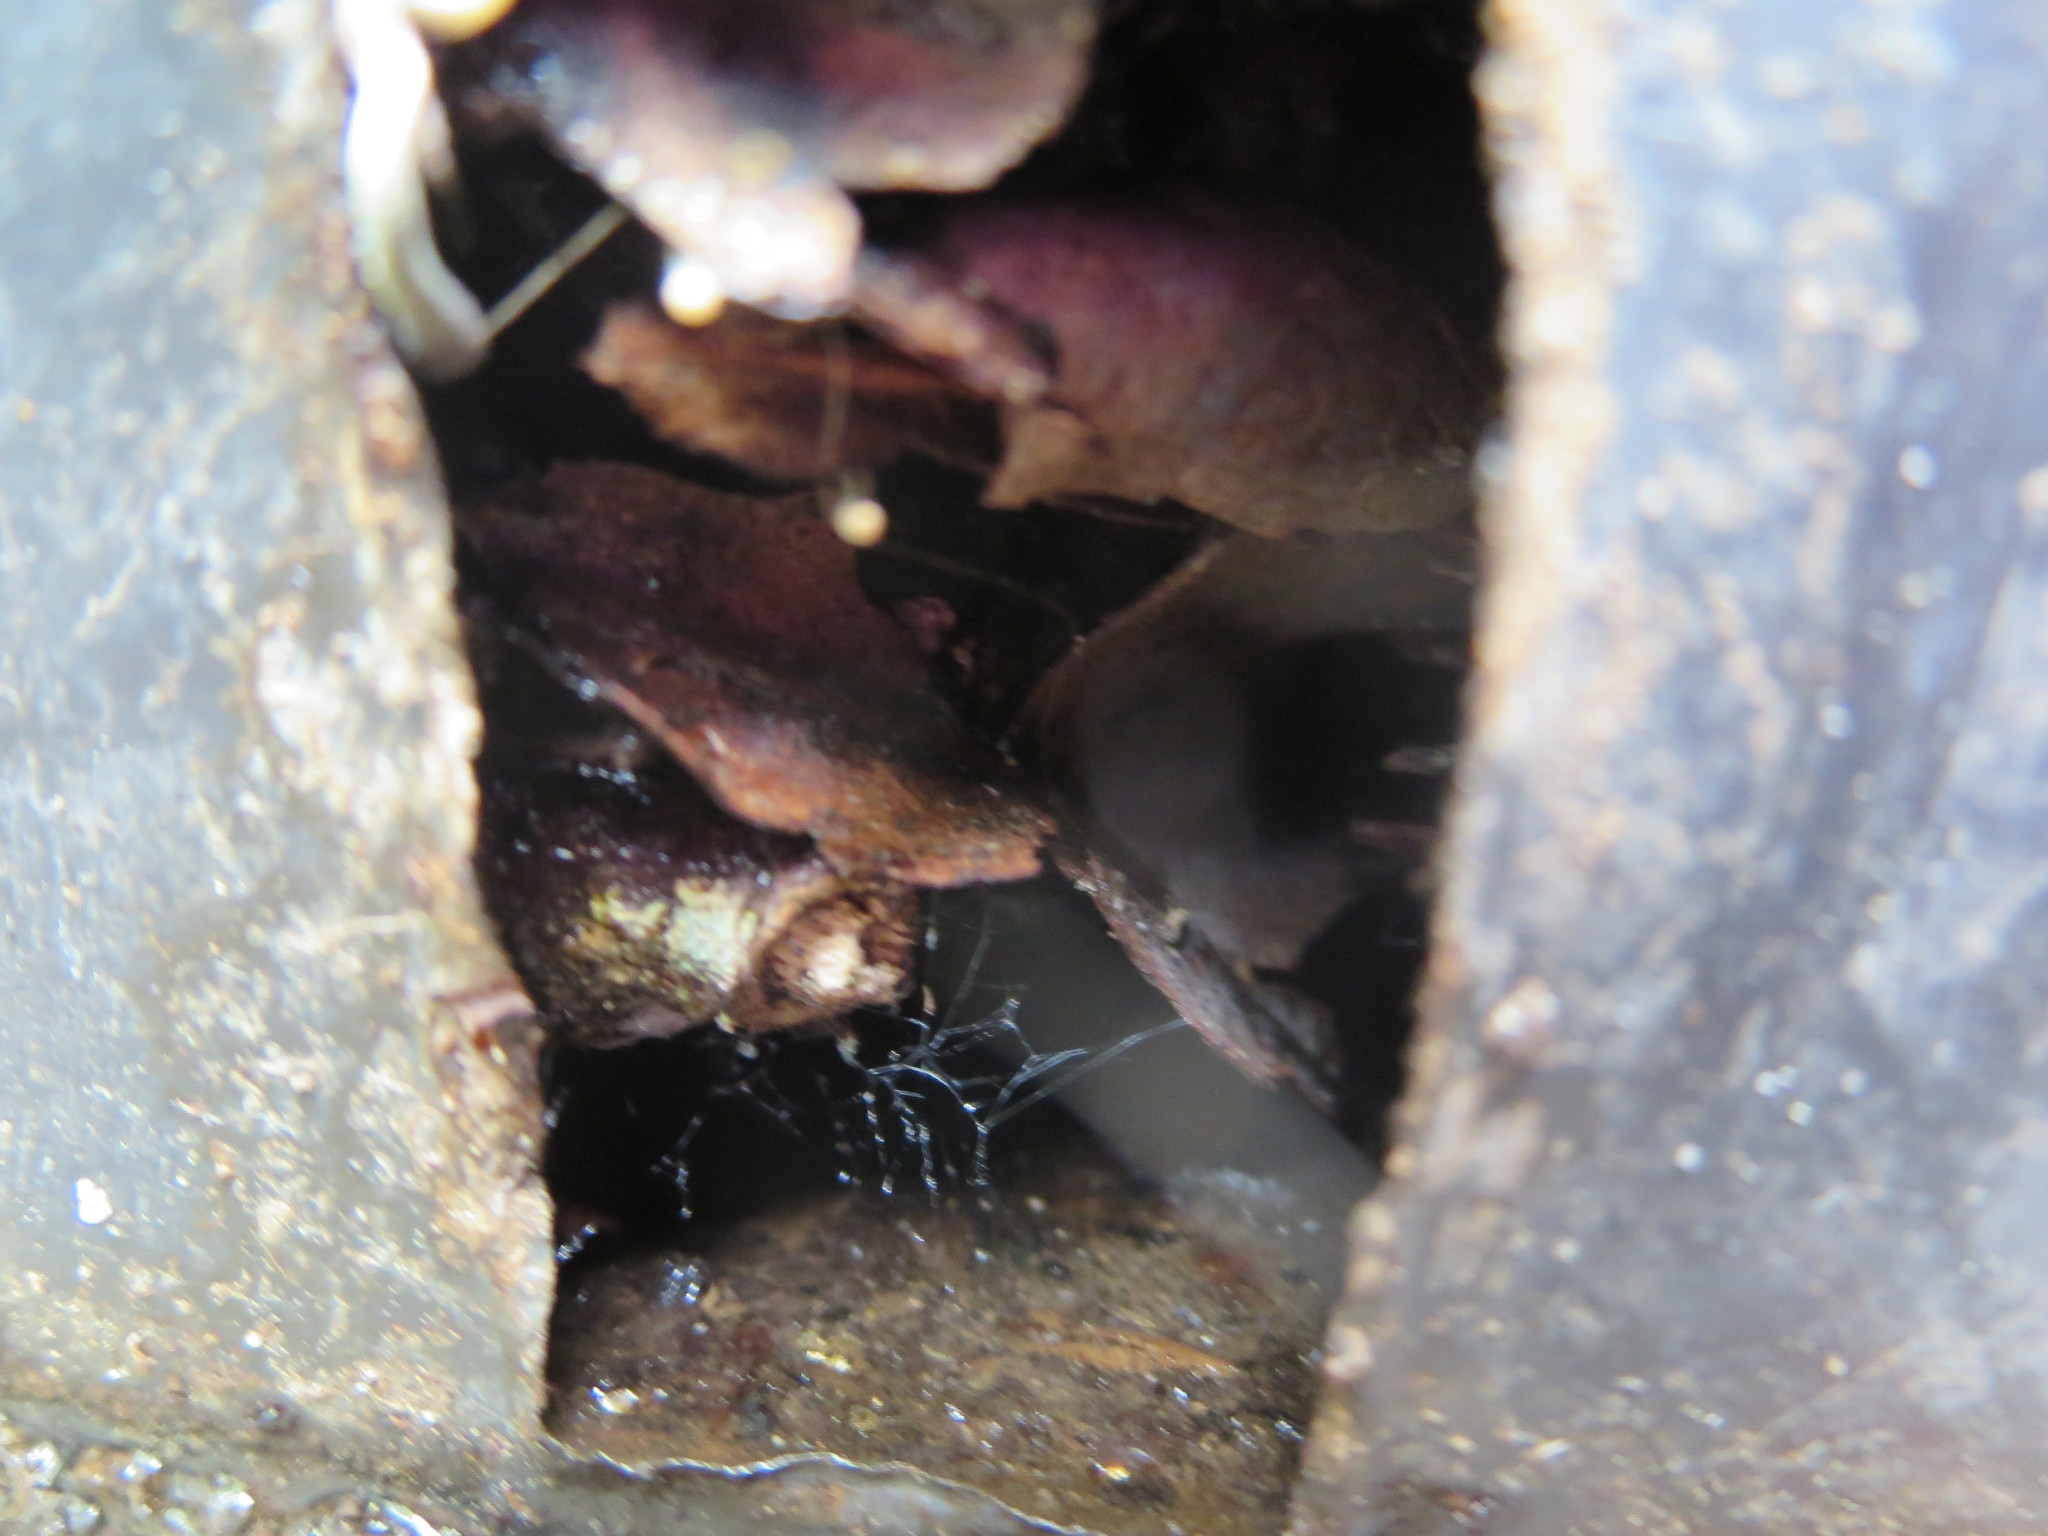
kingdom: Plantae
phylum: Tracheophyta
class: Magnoliopsida
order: Saxifragales
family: Altingiaceae
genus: Liquidambar
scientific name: Liquidambar styraciflua
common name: Sweet gum
